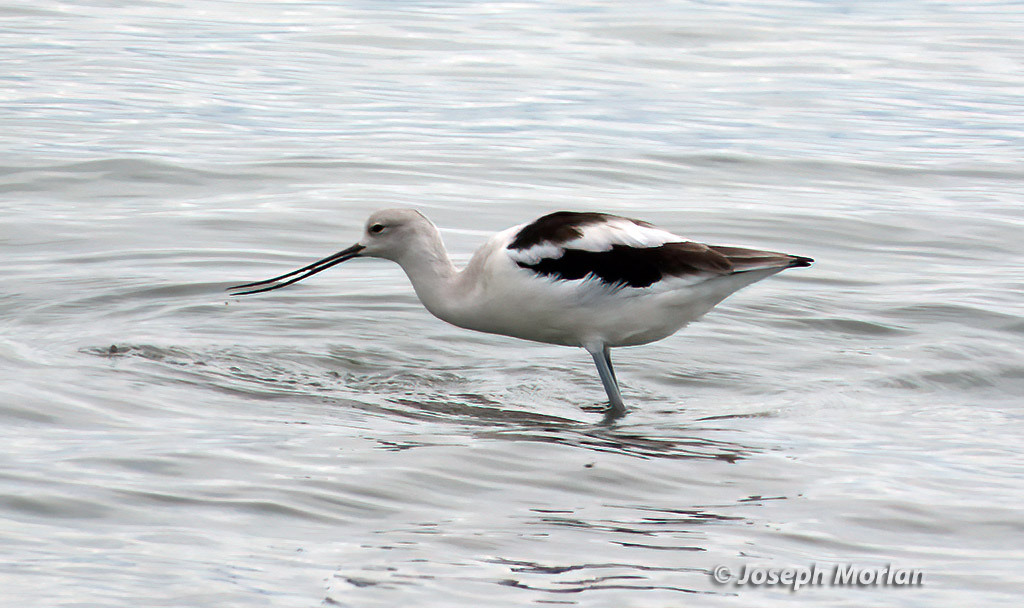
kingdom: Animalia
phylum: Chordata
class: Aves
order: Charadriiformes
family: Recurvirostridae
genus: Recurvirostra
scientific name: Recurvirostra americana
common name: American avocet
